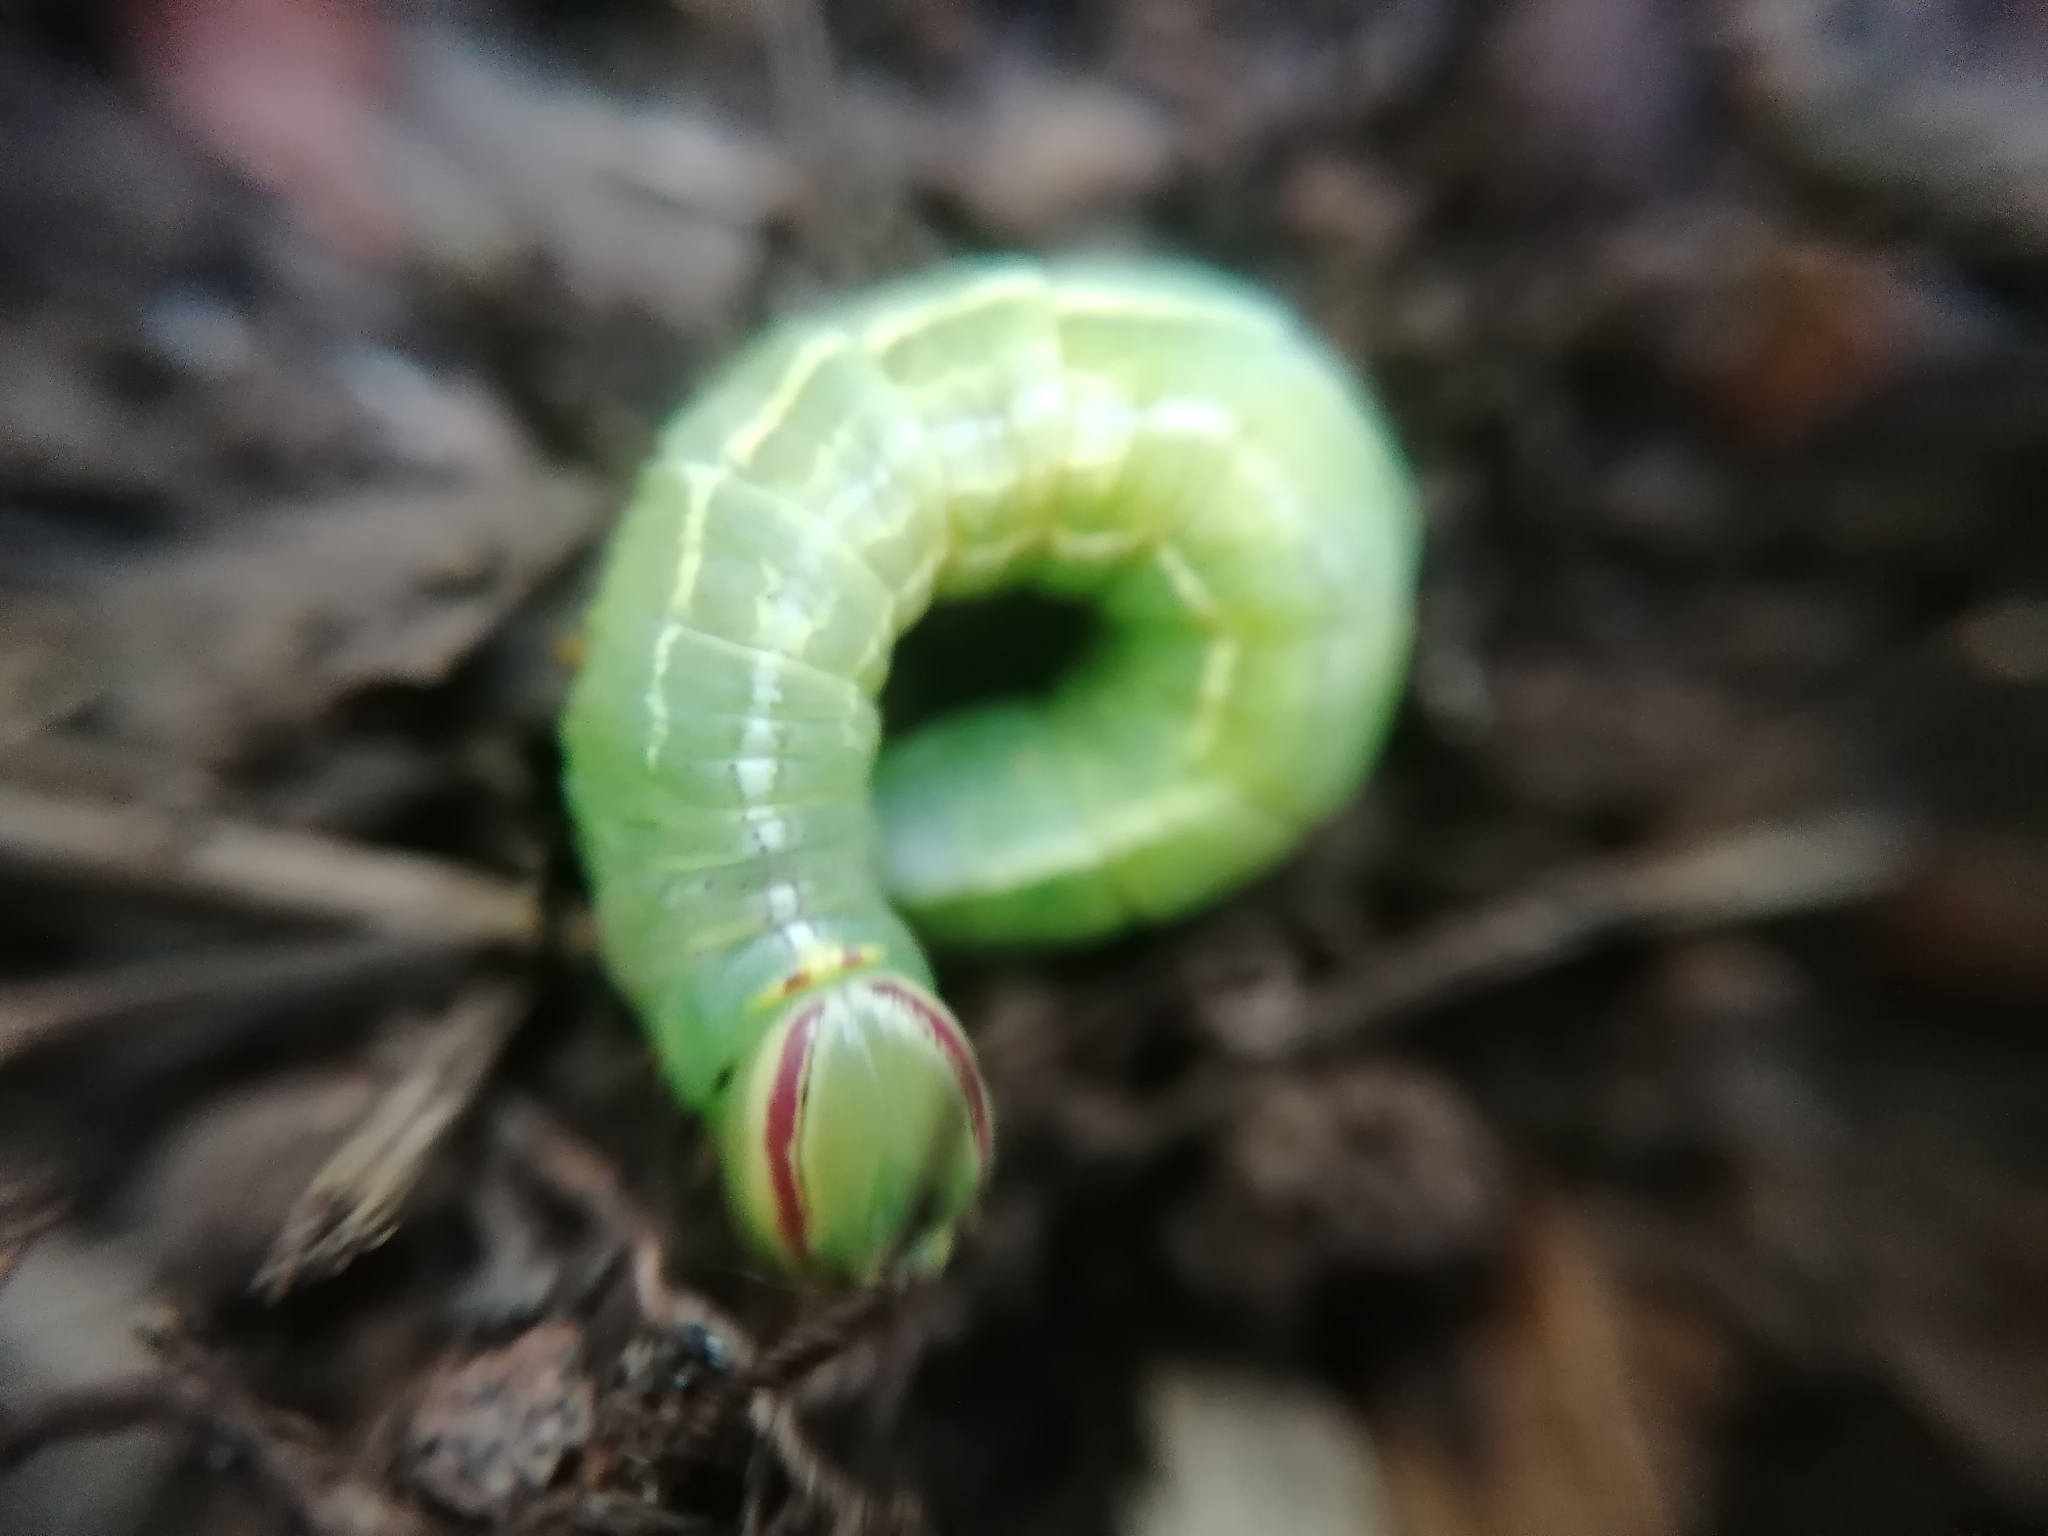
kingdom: Animalia
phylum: Arthropoda
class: Insecta
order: Lepidoptera
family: Notodontidae
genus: Disphragis
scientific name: Disphragis Cecrita guttivitta
